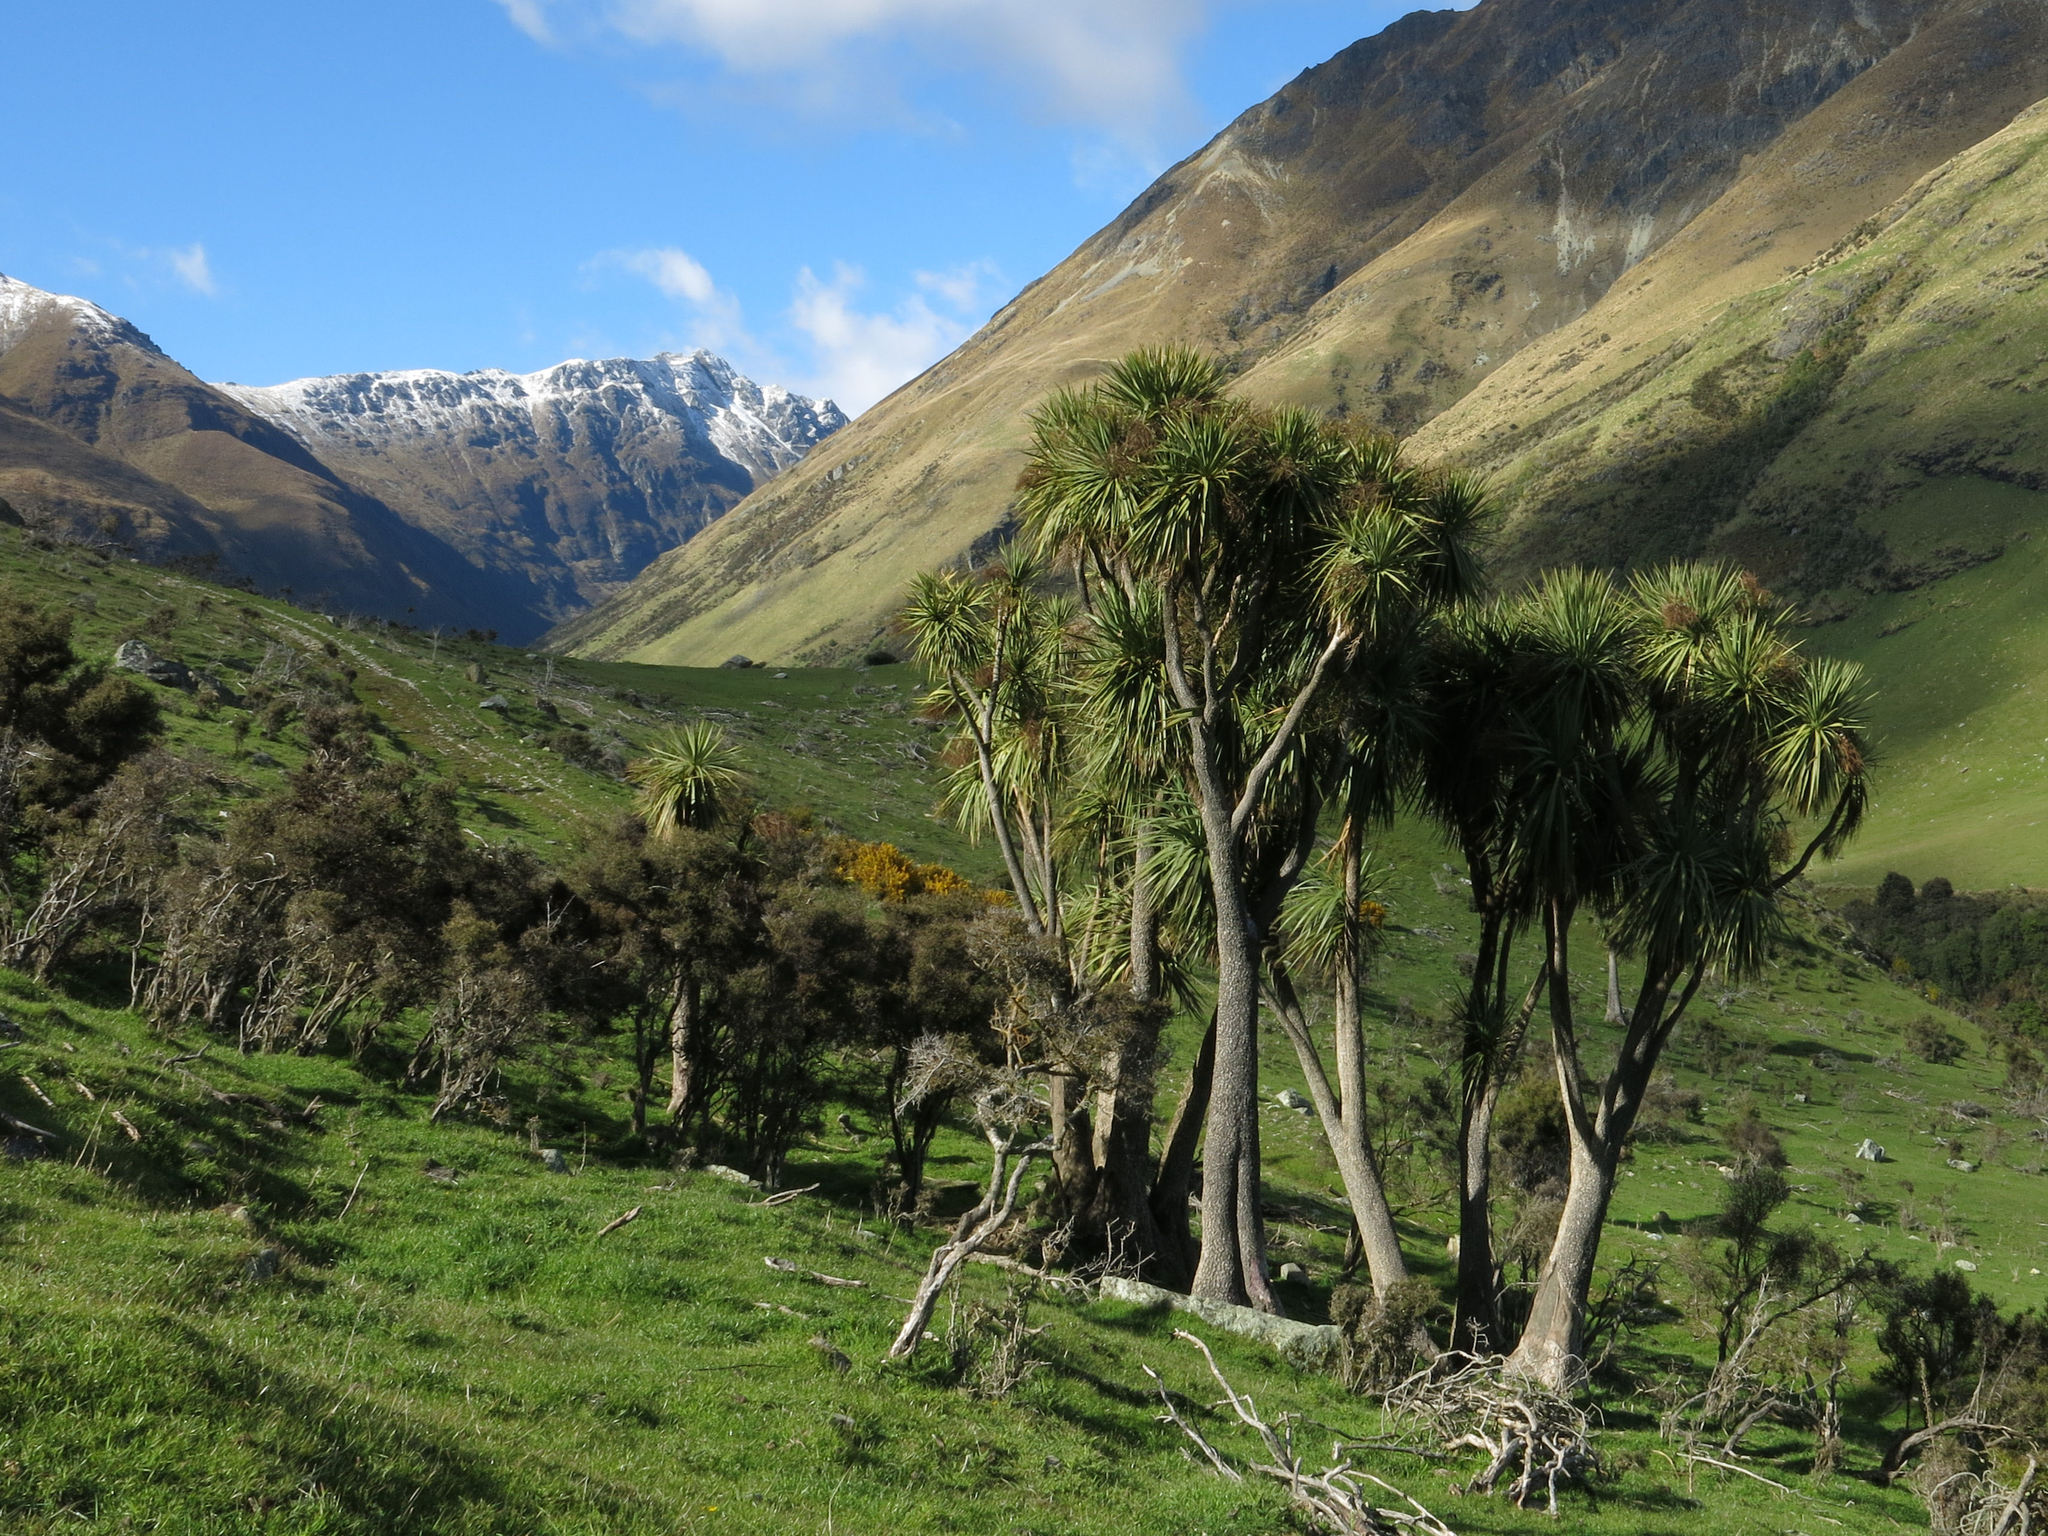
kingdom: Plantae
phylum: Tracheophyta
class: Liliopsida
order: Asparagales
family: Asparagaceae
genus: Cordyline
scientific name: Cordyline australis
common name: Cabbage-palm
